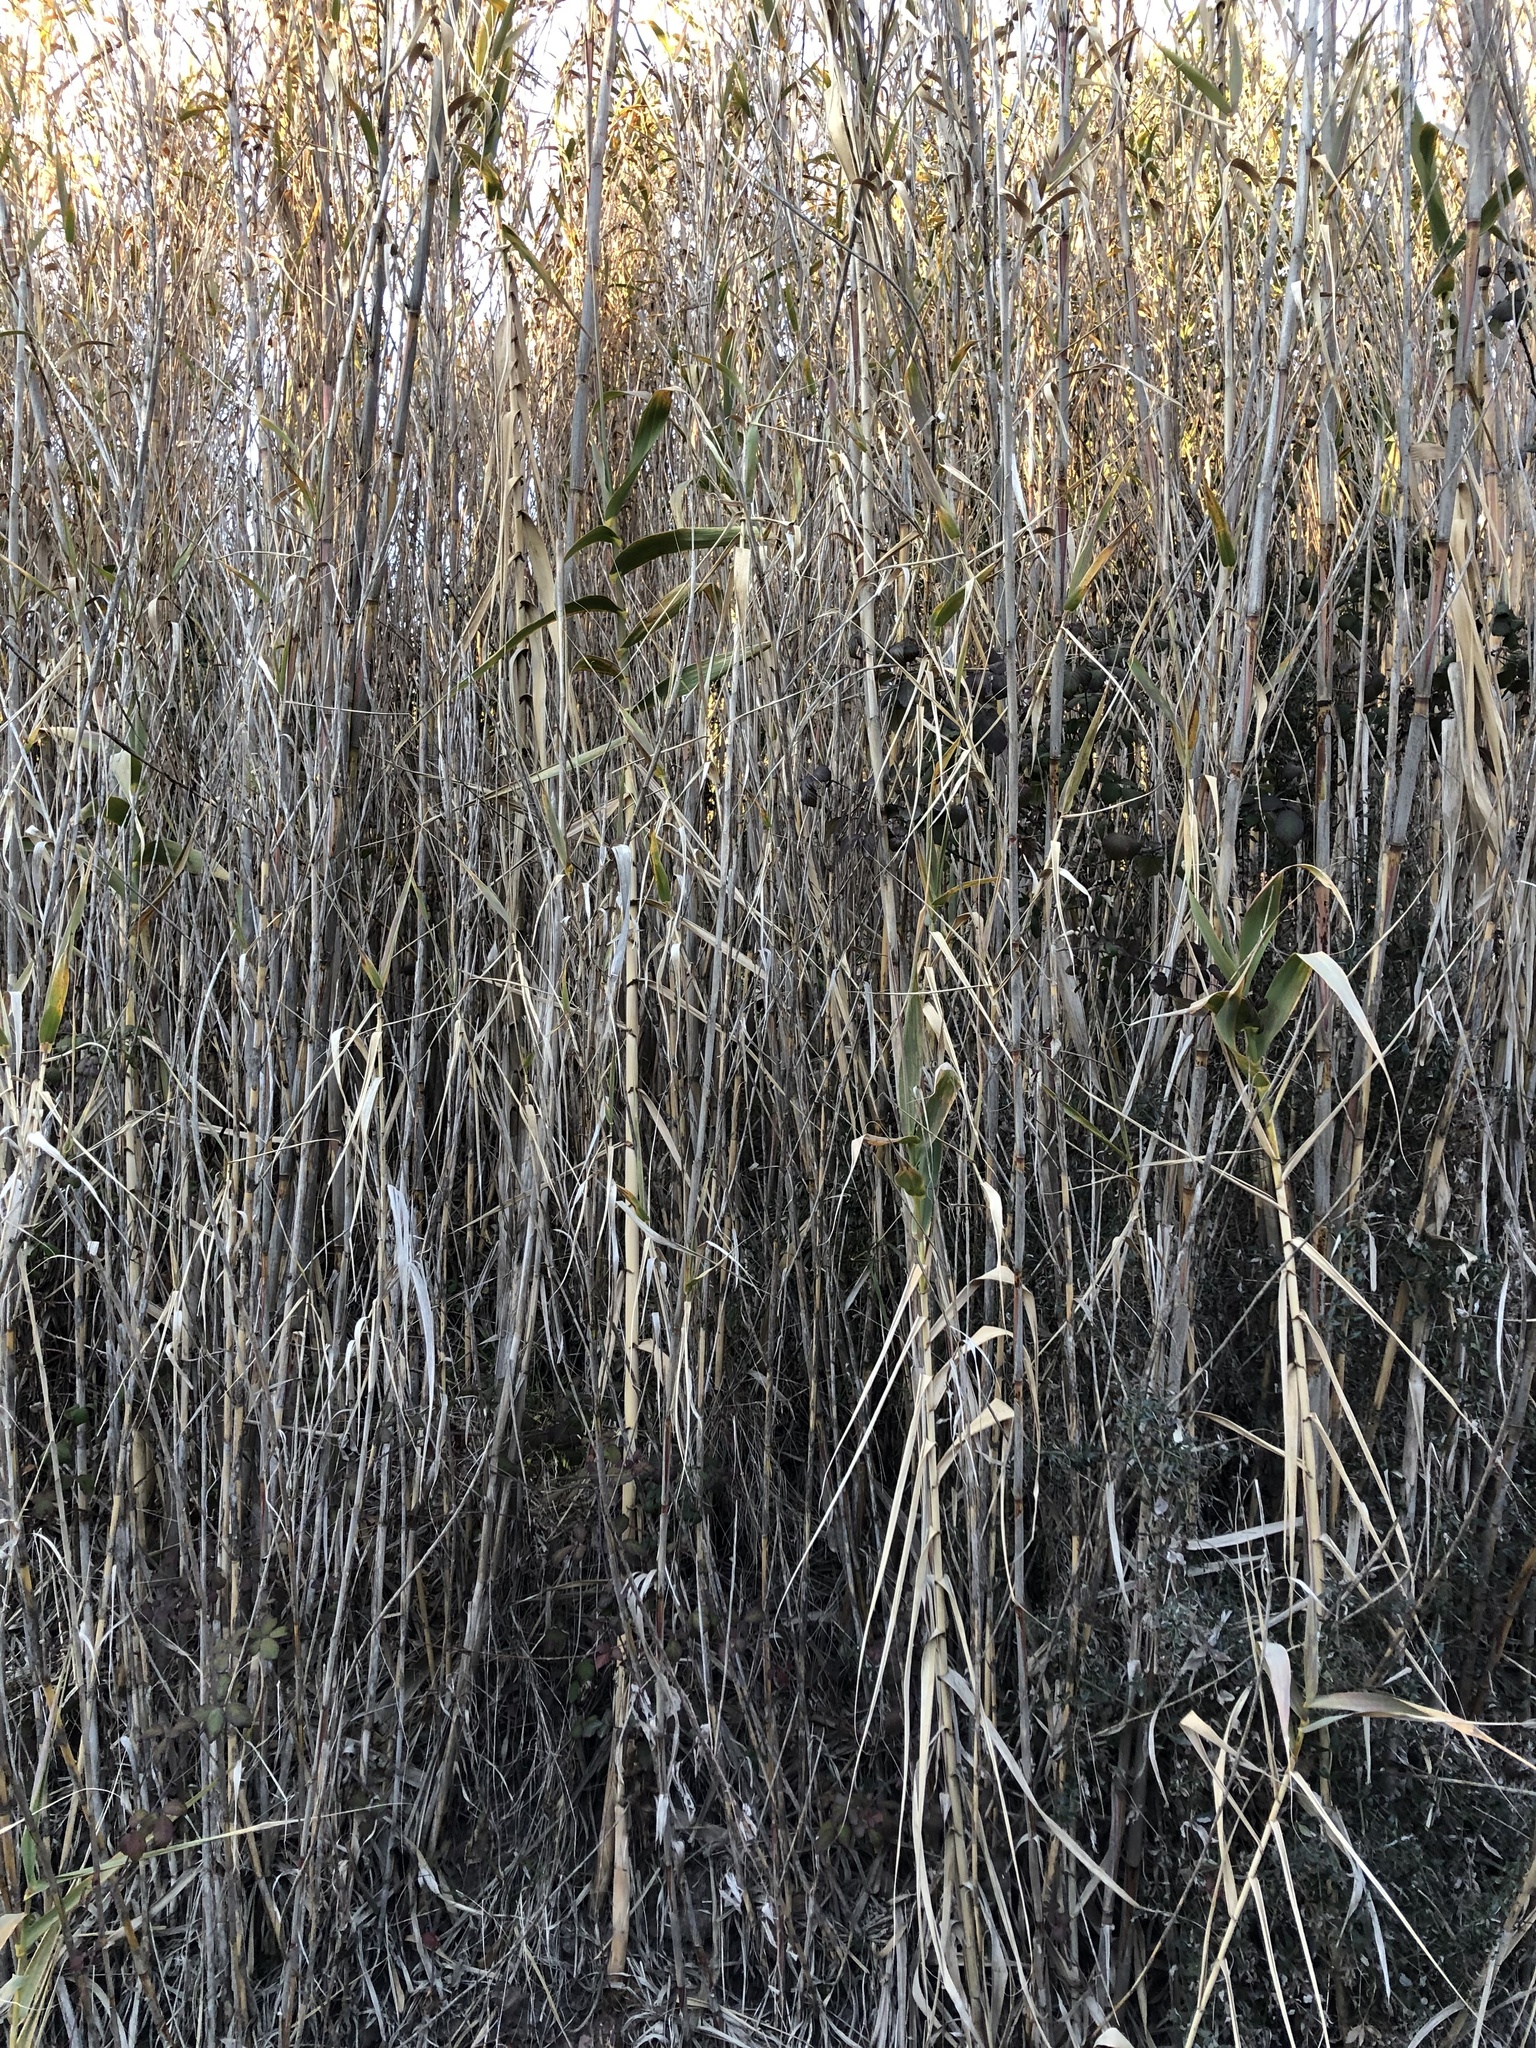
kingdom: Plantae
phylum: Tracheophyta
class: Liliopsida
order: Poales
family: Poaceae
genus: Arundo
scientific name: Arundo donax
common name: Giant reed
